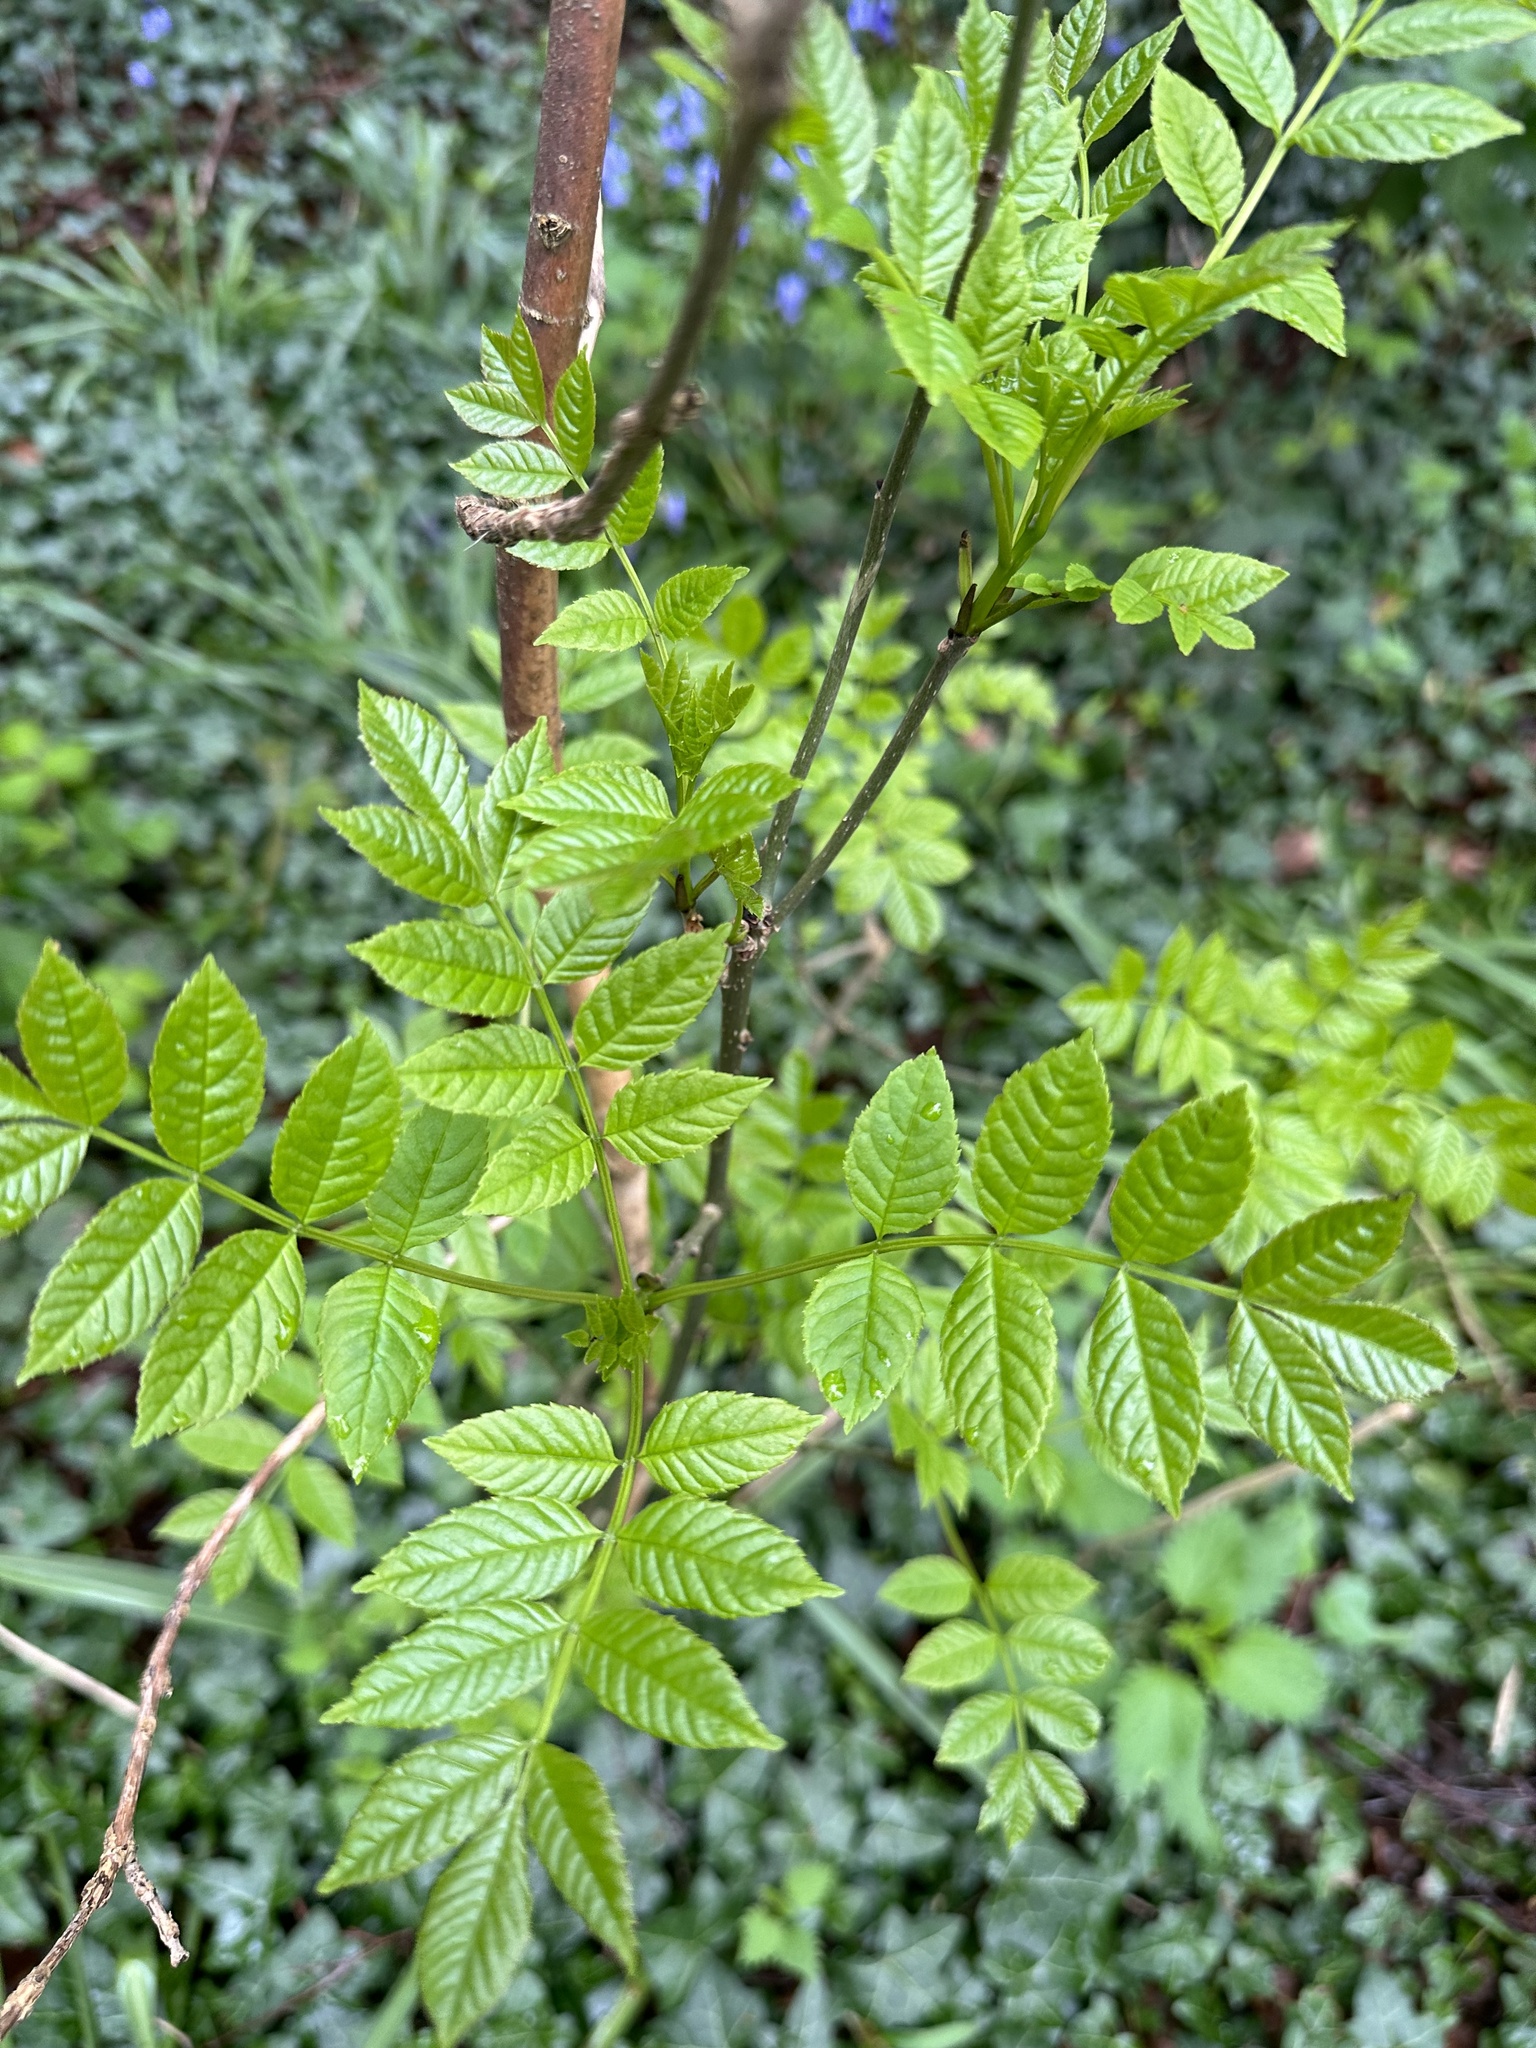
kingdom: Plantae
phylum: Tracheophyta
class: Magnoliopsida
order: Lamiales
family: Oleaceae
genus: Fraxinus
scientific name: Fraxinus excelsior
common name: European ash
